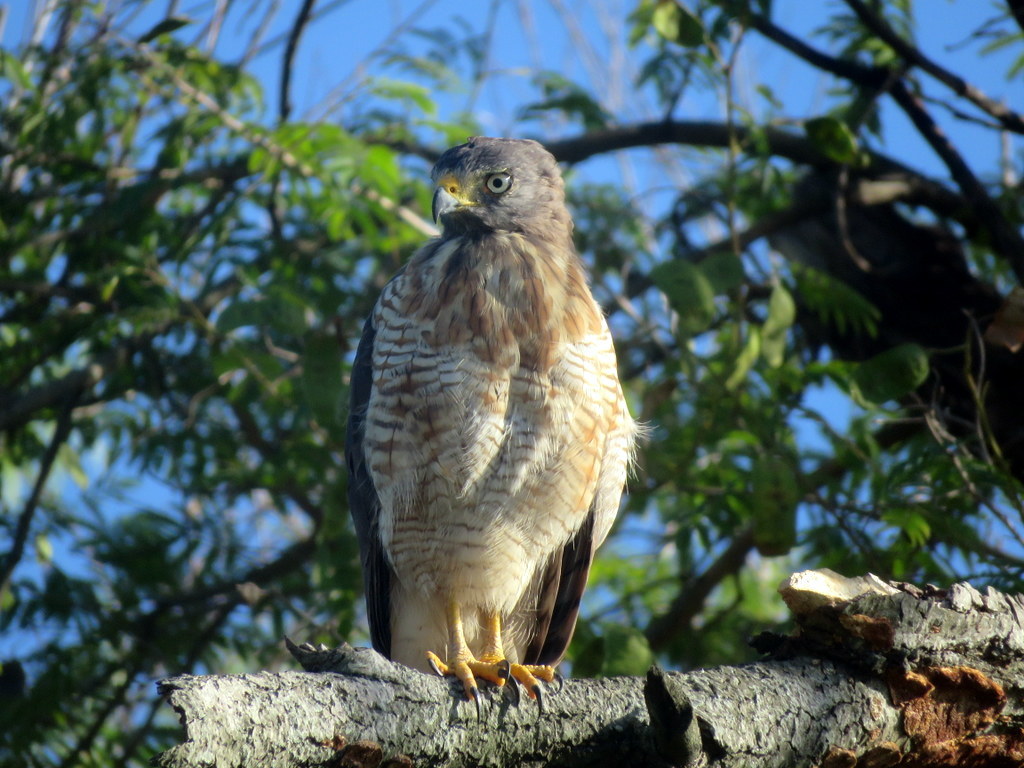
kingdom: Animalia
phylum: Chordata
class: Aves
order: Accipitriformes
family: Accipitridae
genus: Rupornis
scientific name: Rupornis magnirostris
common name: Roadside hawk
